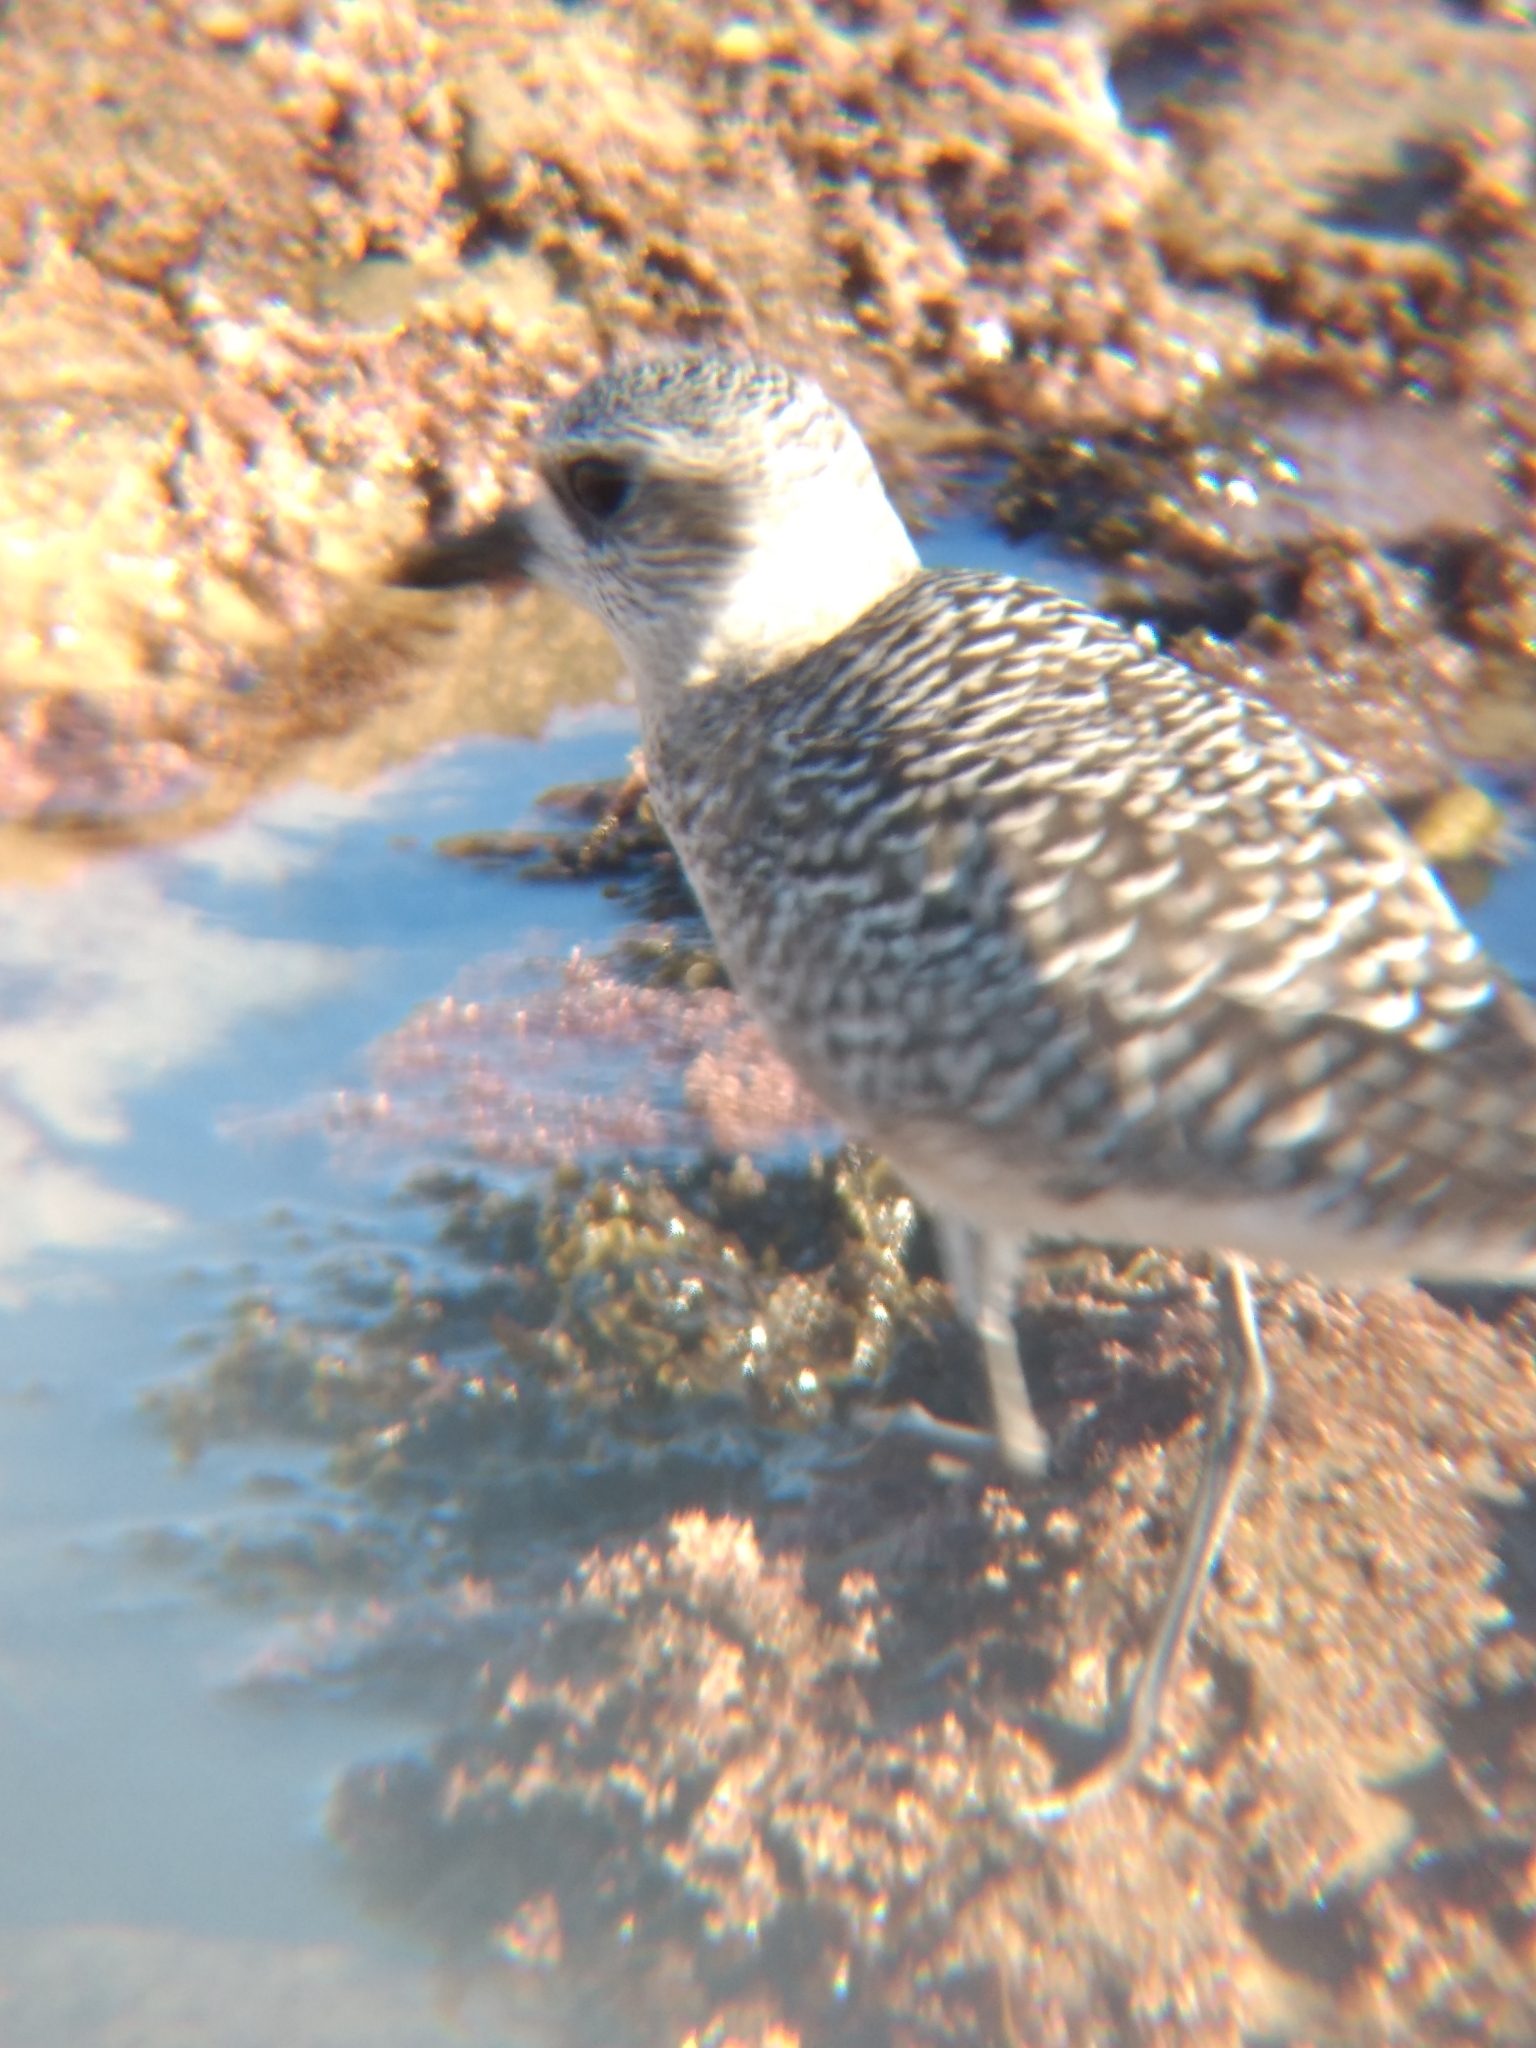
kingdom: Animalia
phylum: Chordata
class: Aves
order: Charadriiformes
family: Charadriidae
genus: Pluvialis
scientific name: Pluvialis squatarola
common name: Grey plover
